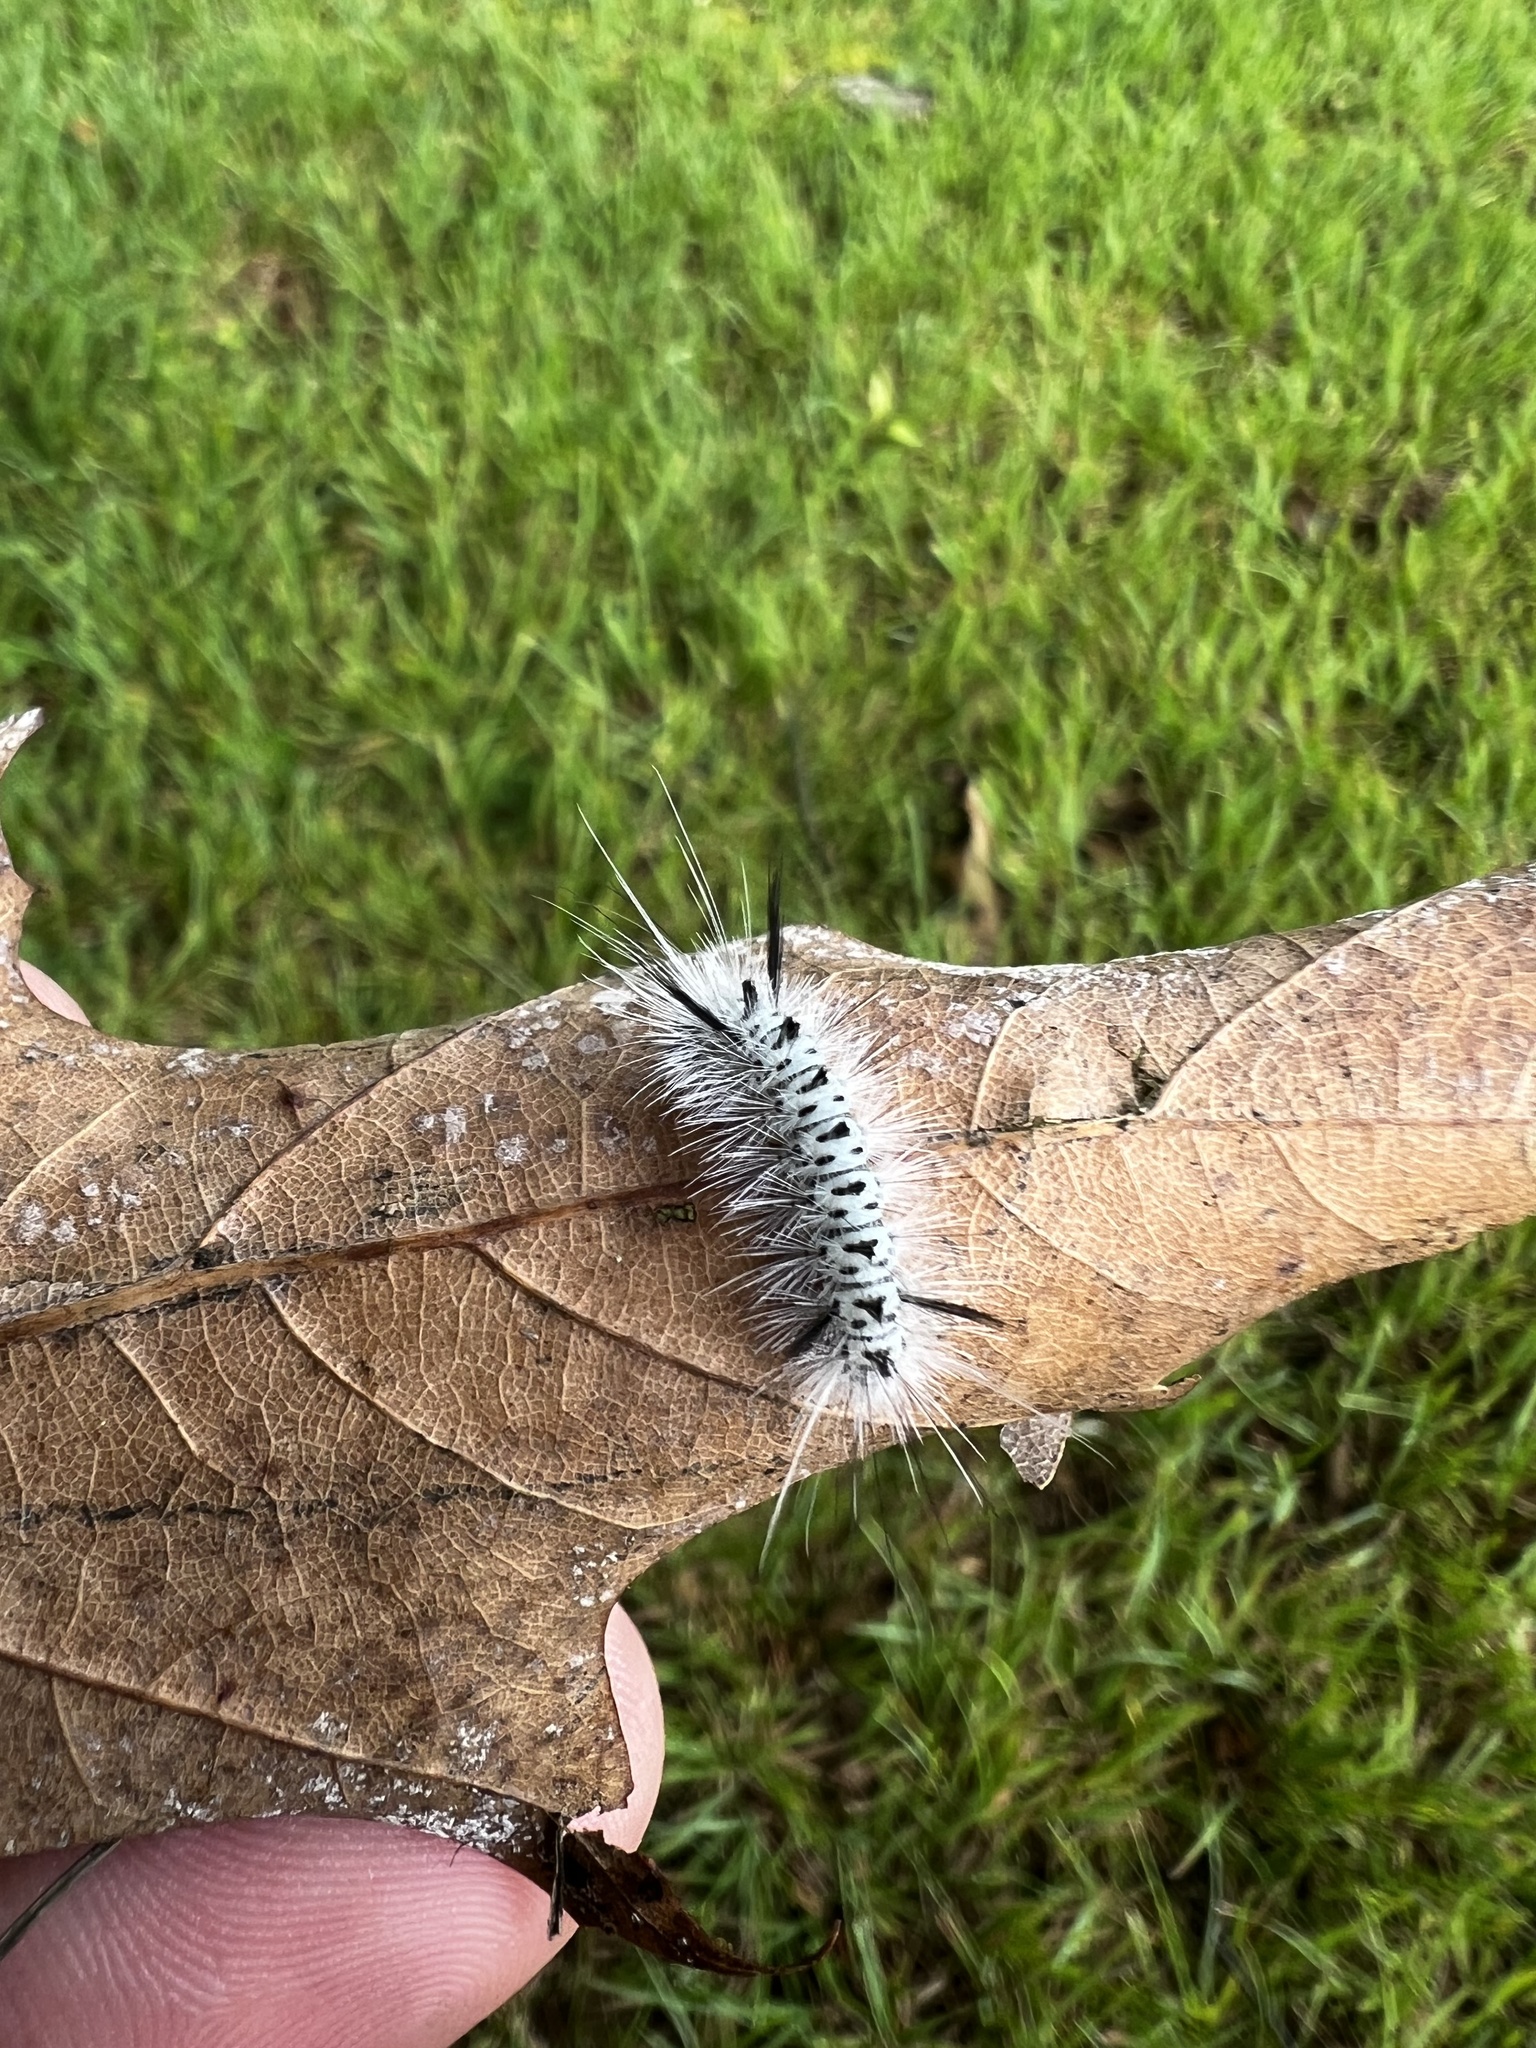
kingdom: Animalia
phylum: Arthropoda
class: Insecta
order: Lepidoptera
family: Erebidae
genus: Lophocampa
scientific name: Lophocampa caryae
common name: Hickory tussock moth
